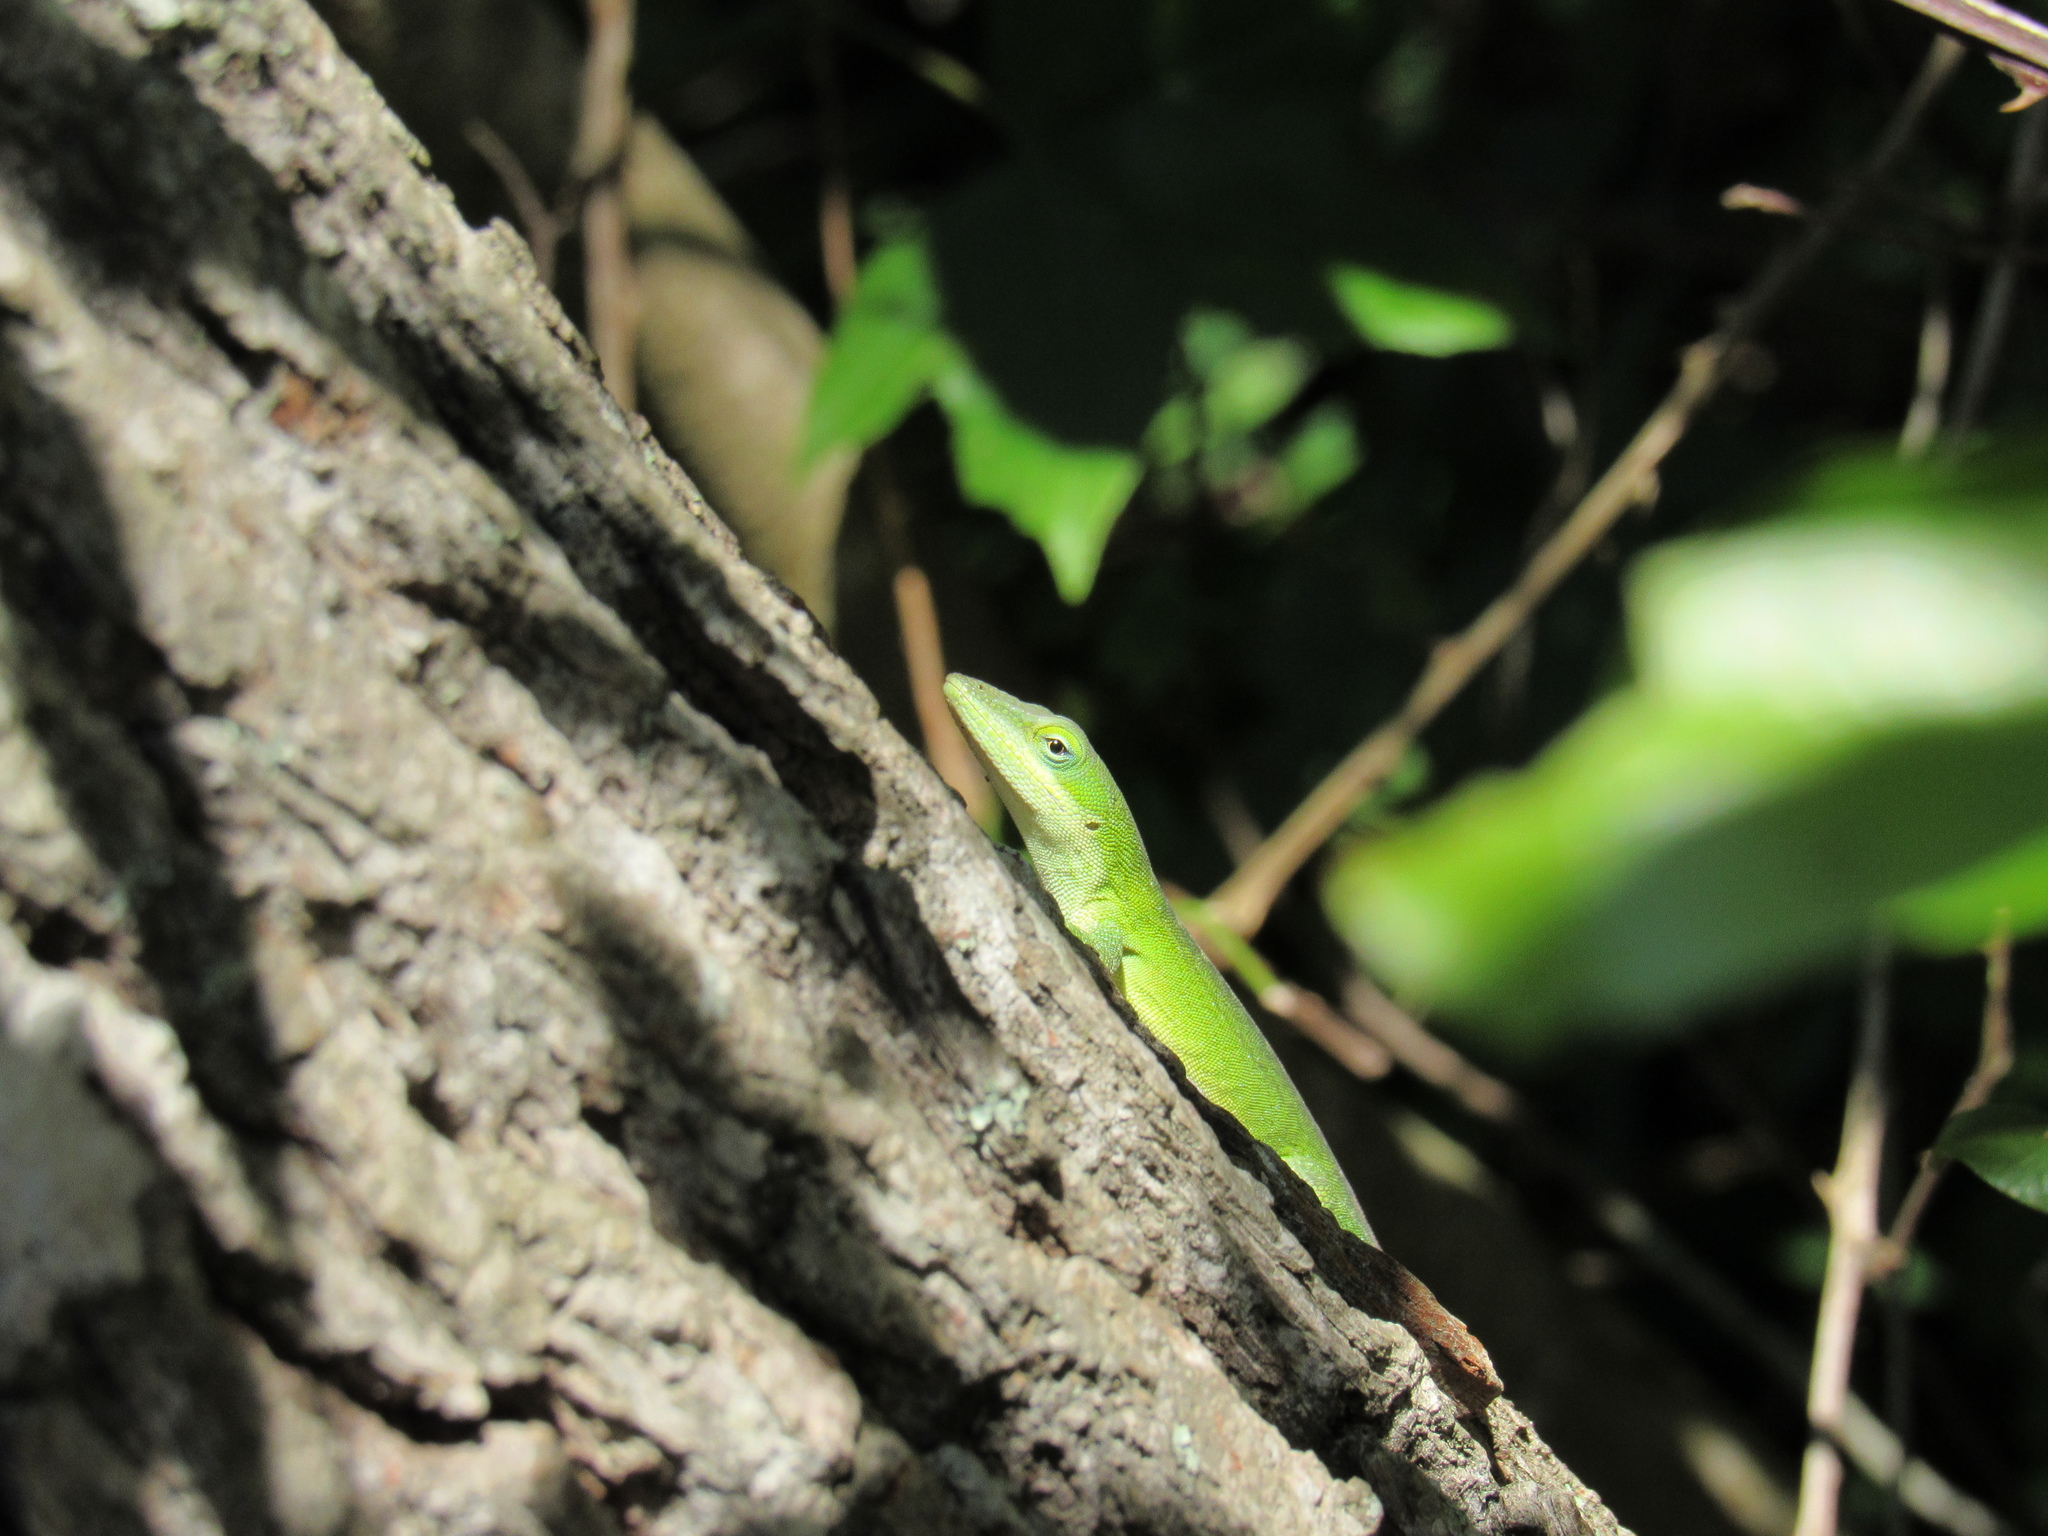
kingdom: Animalia
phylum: Chordata
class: Squamata
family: Dactyloidae
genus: Anolis
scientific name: Anolis carolinensis
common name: Green anole
